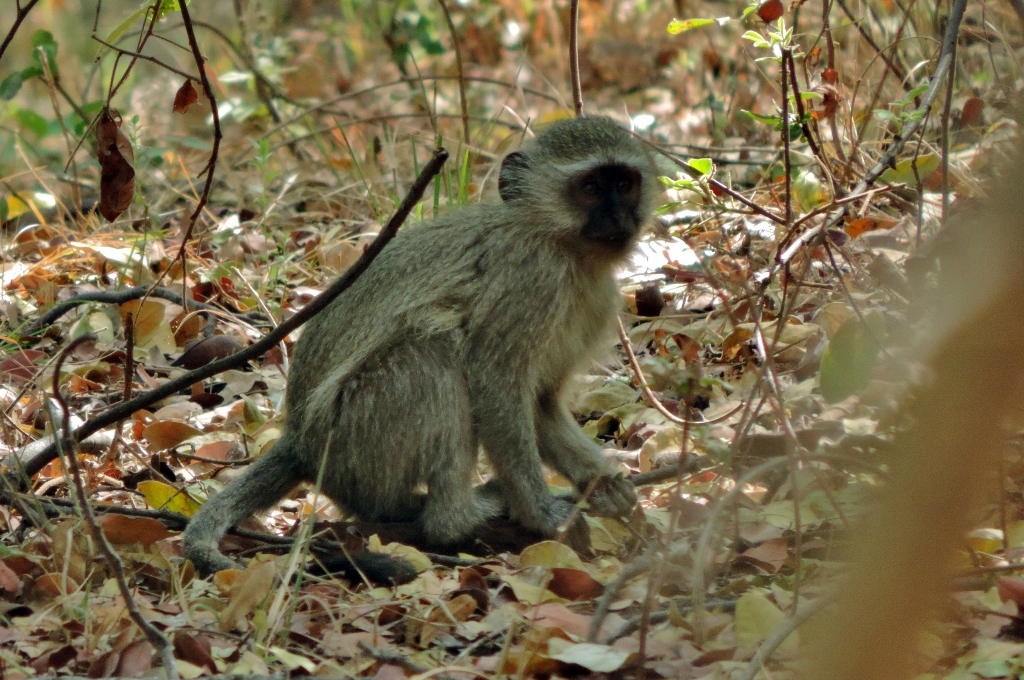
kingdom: Animalia
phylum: Chordata
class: Mammalia
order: Primates
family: Cercopithecidae
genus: Chlorocebus
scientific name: Chlorocebus pygerythrus
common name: Vervet monkey
